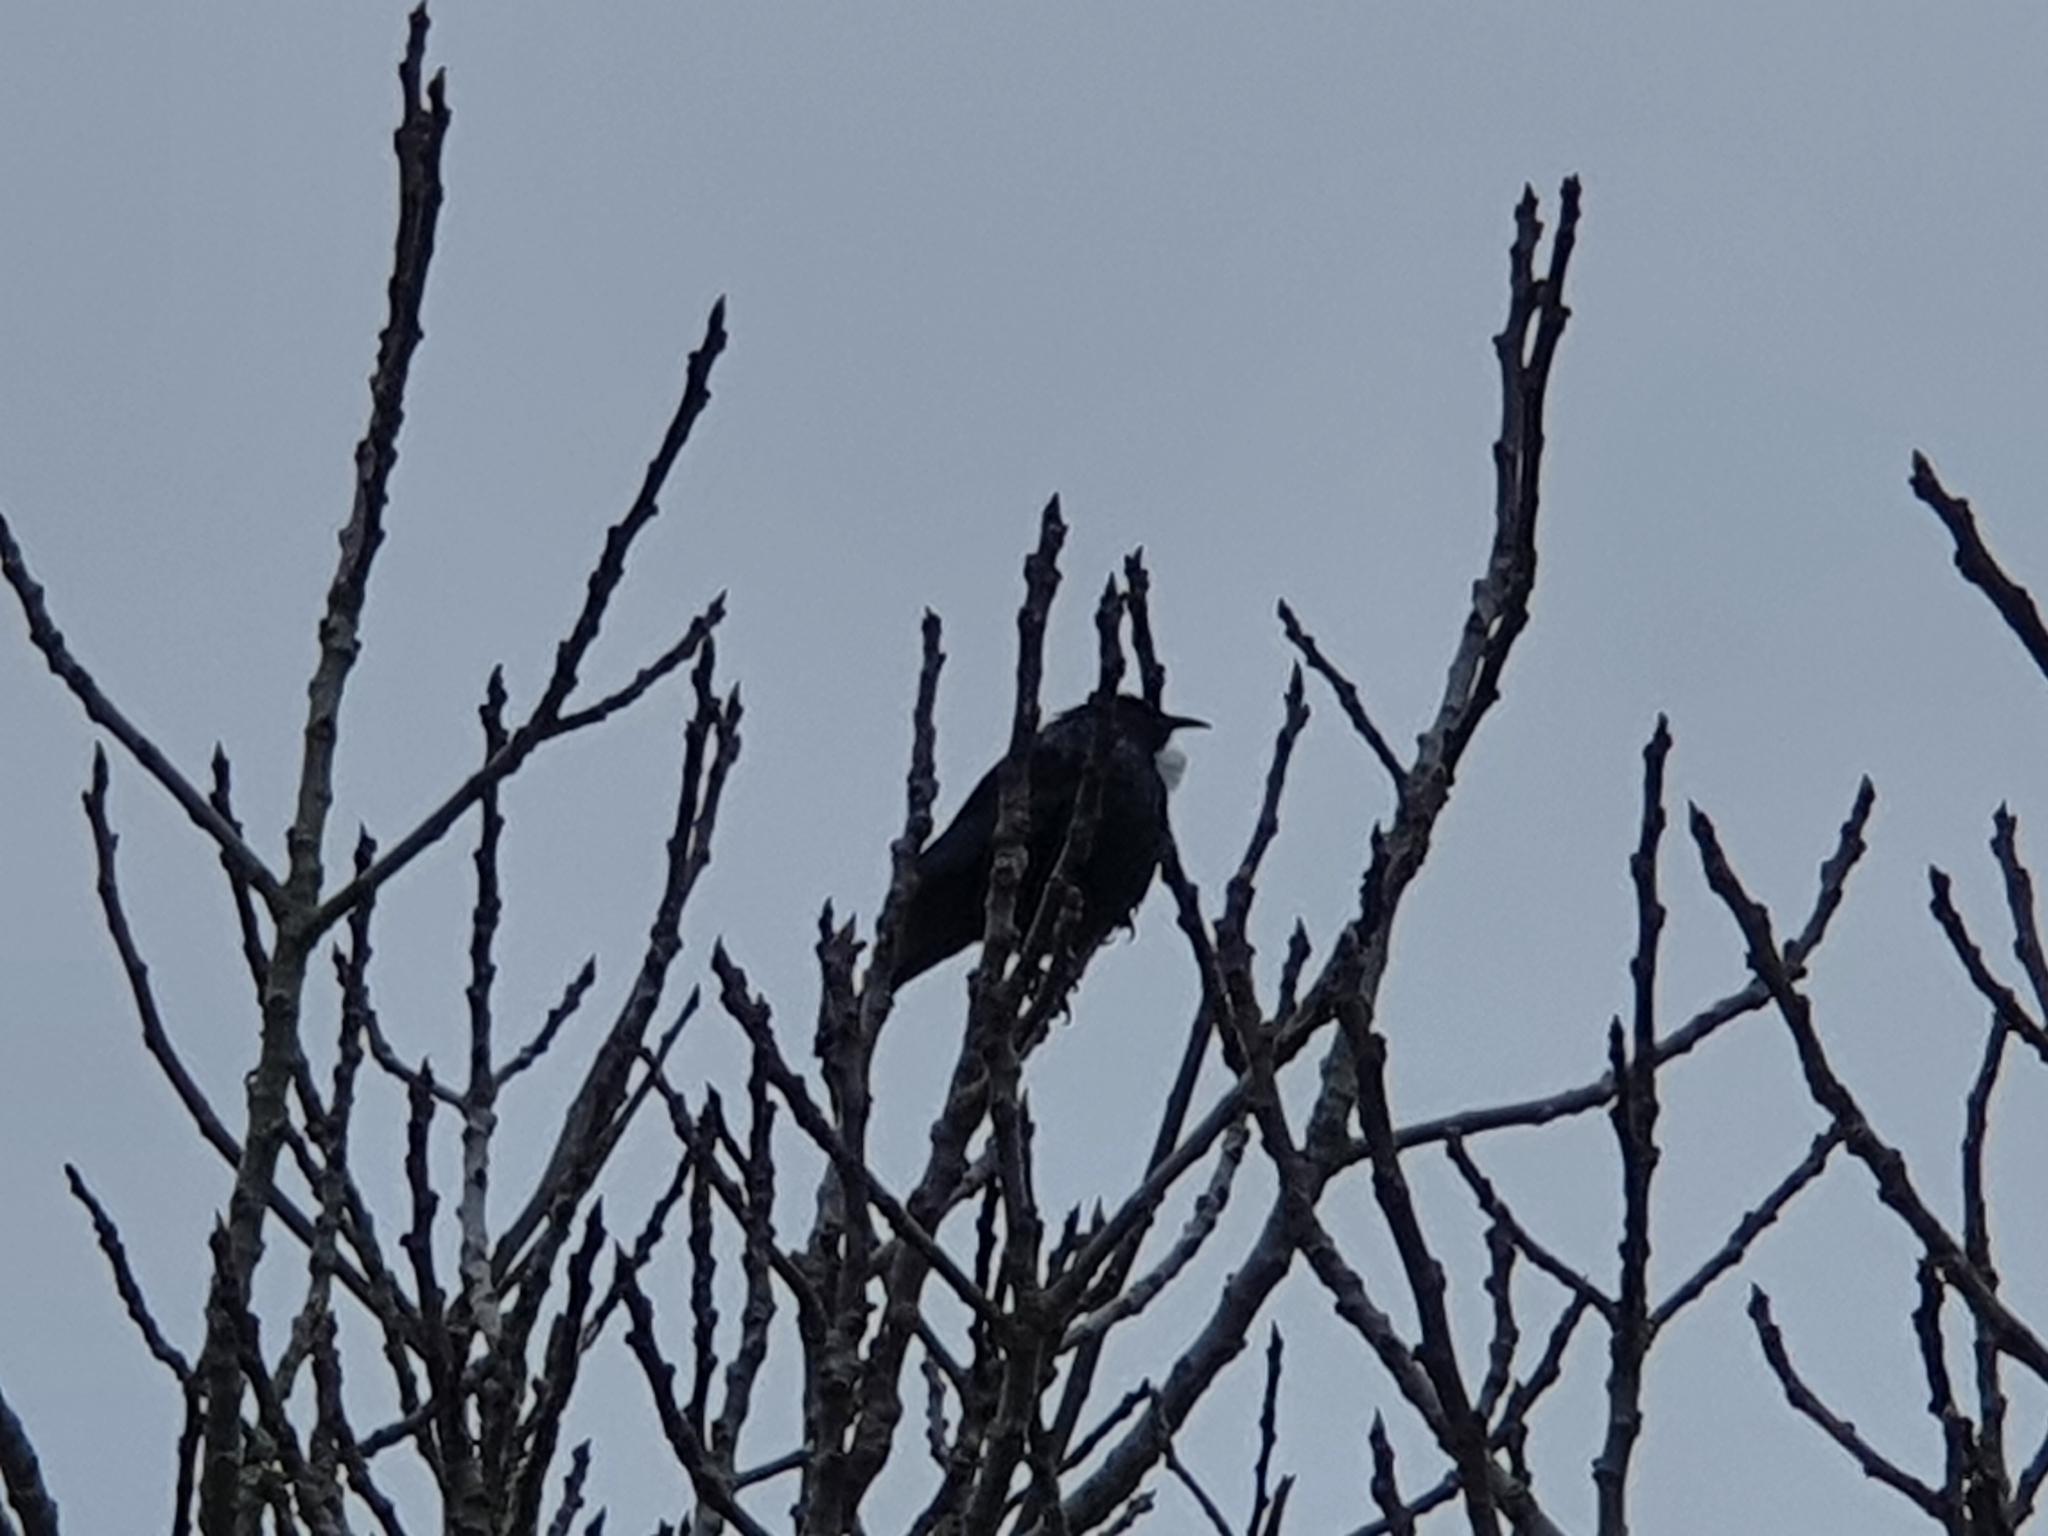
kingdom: Animalia
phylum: Chordata
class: Aves
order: Passeriformes
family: Meliphagidae
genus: Prosthemadera
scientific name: Prosthemadera novaeseelandiae
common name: Tui
